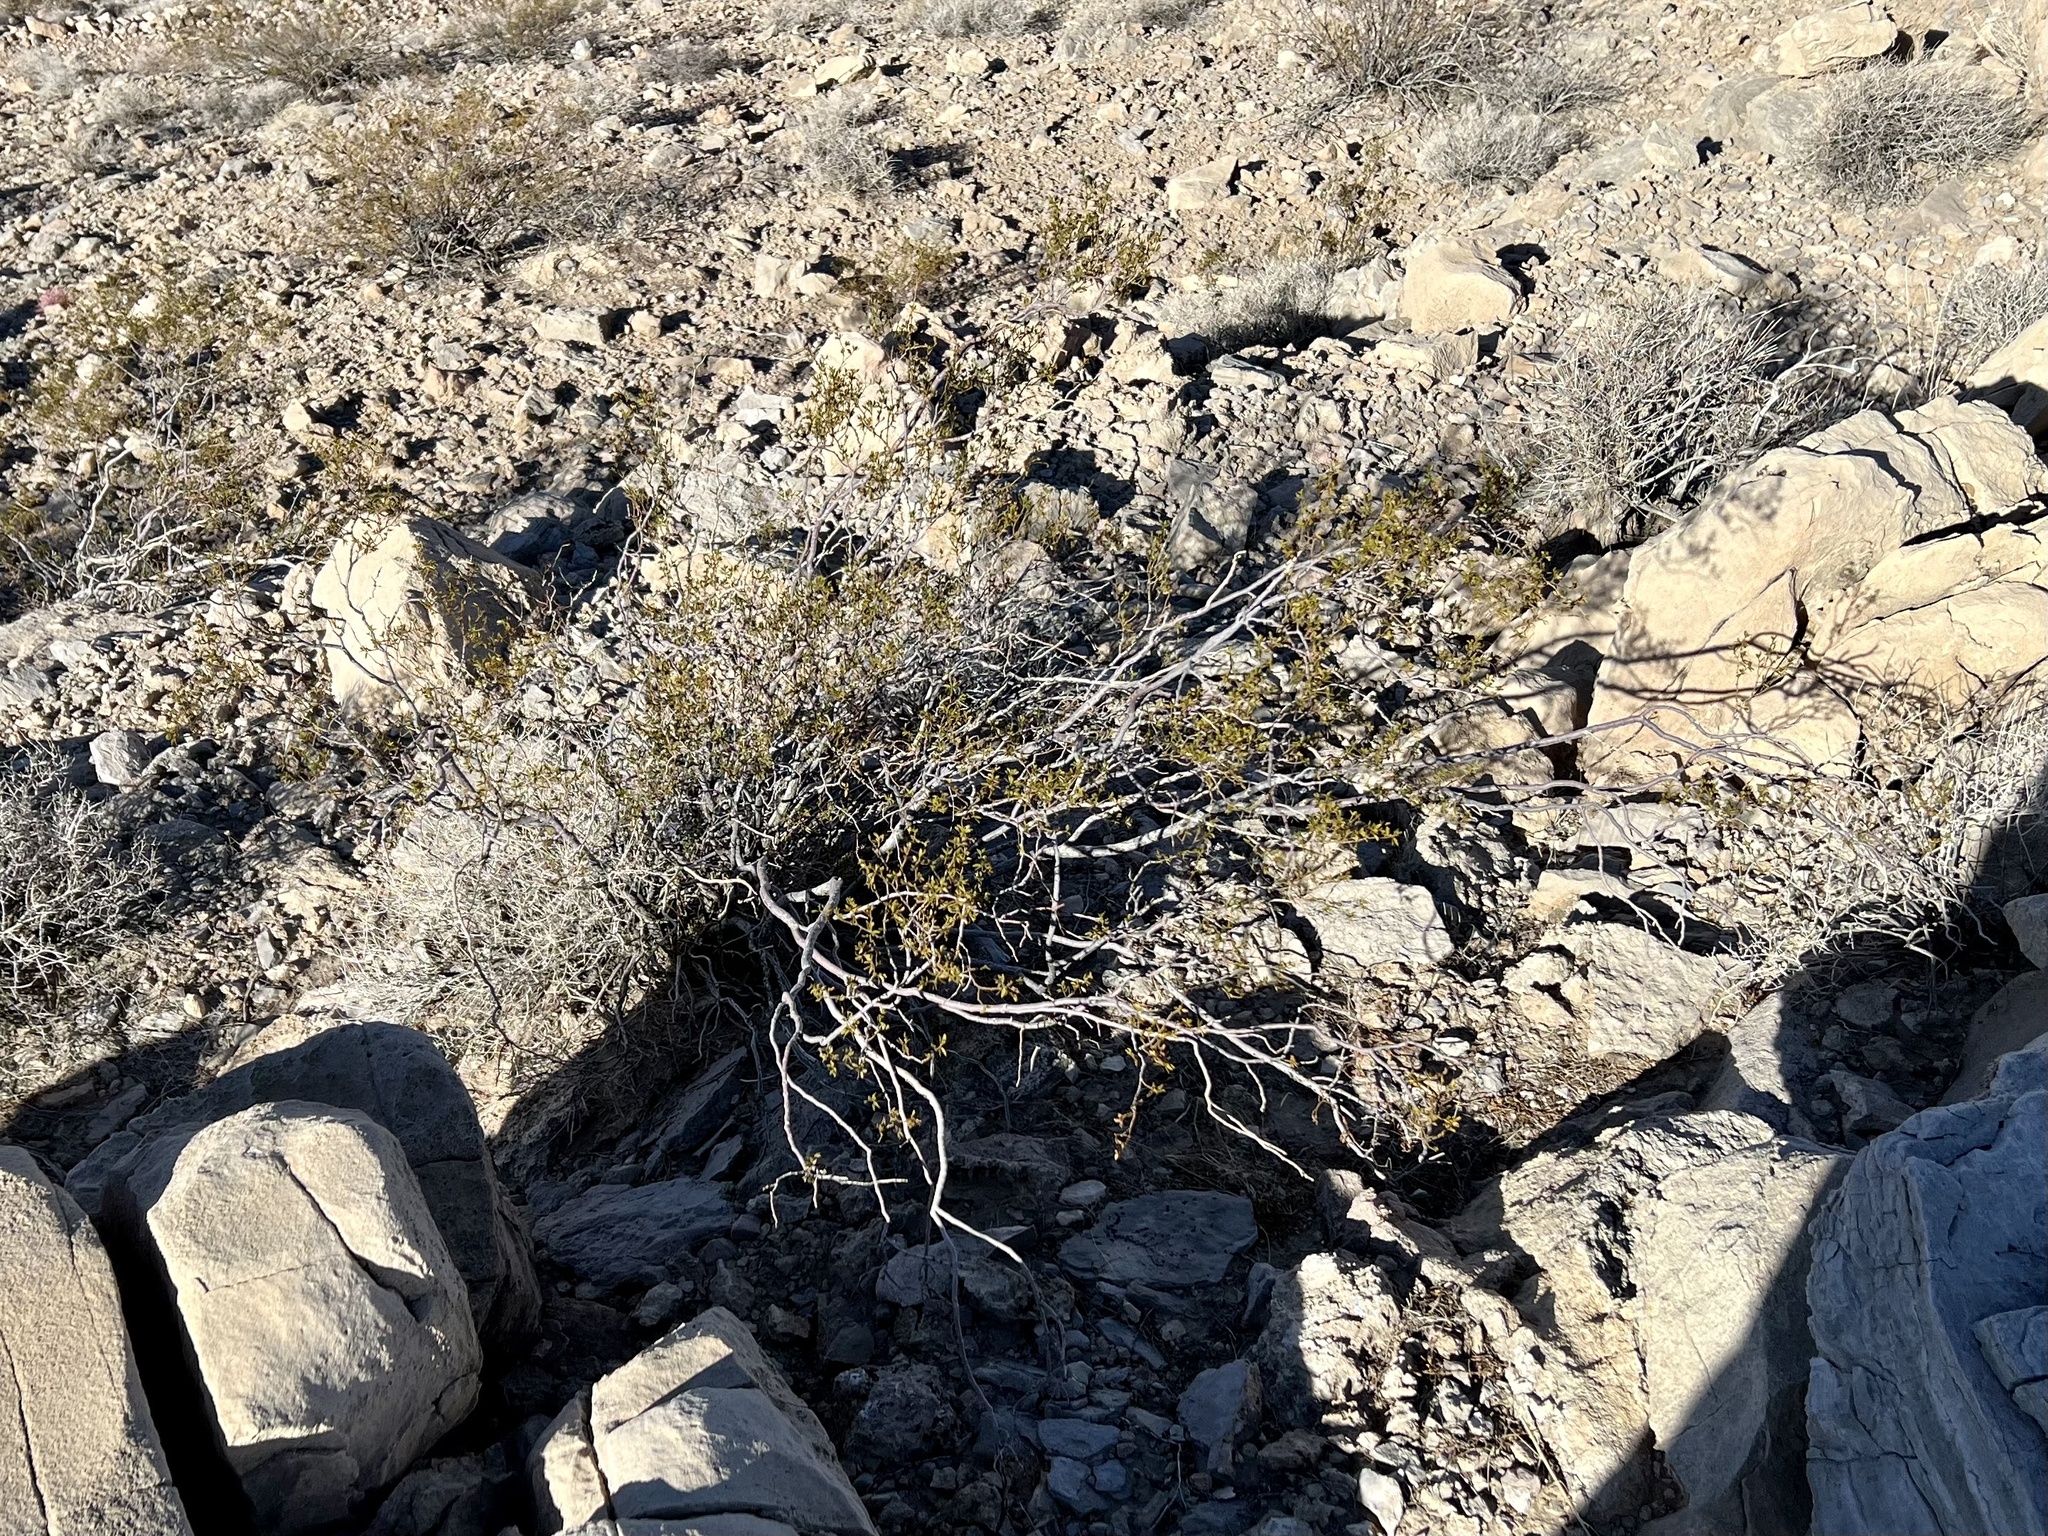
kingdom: Plantae
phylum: Tracheophyta
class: Magnoliopsida
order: Zygophyllales
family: Zygophyllaceae
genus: Larrea
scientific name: Larrea tridentata
